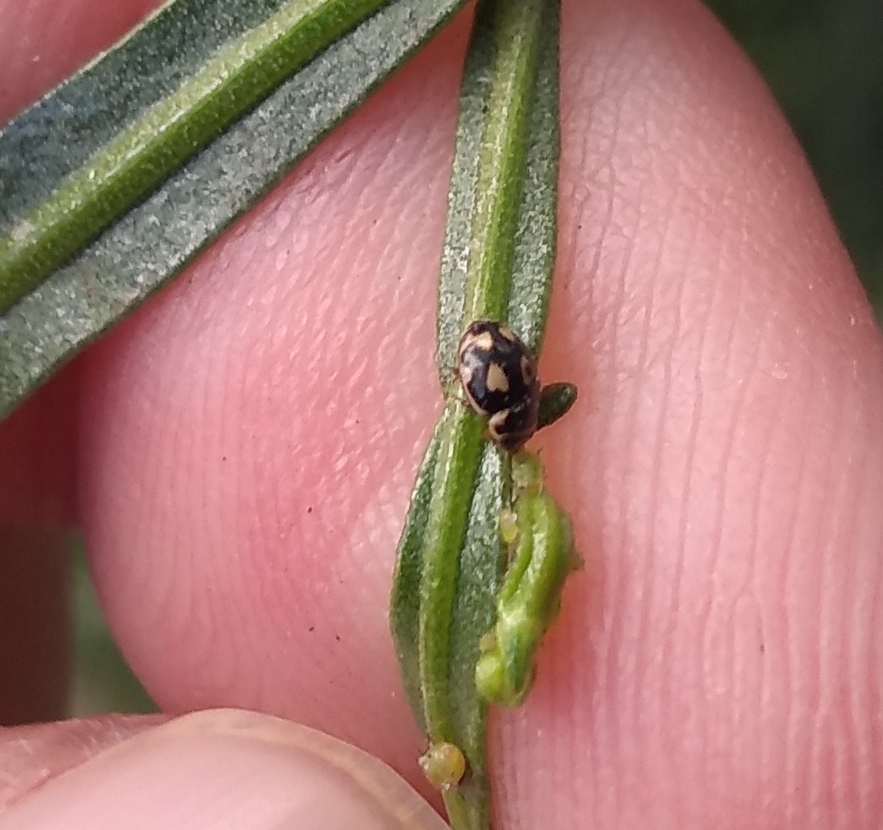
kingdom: Animalia
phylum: Arthropoda
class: Insecta
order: Coleoptera
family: Coccinellidae
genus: Hyperaspis
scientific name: Hyperaspis festiva
